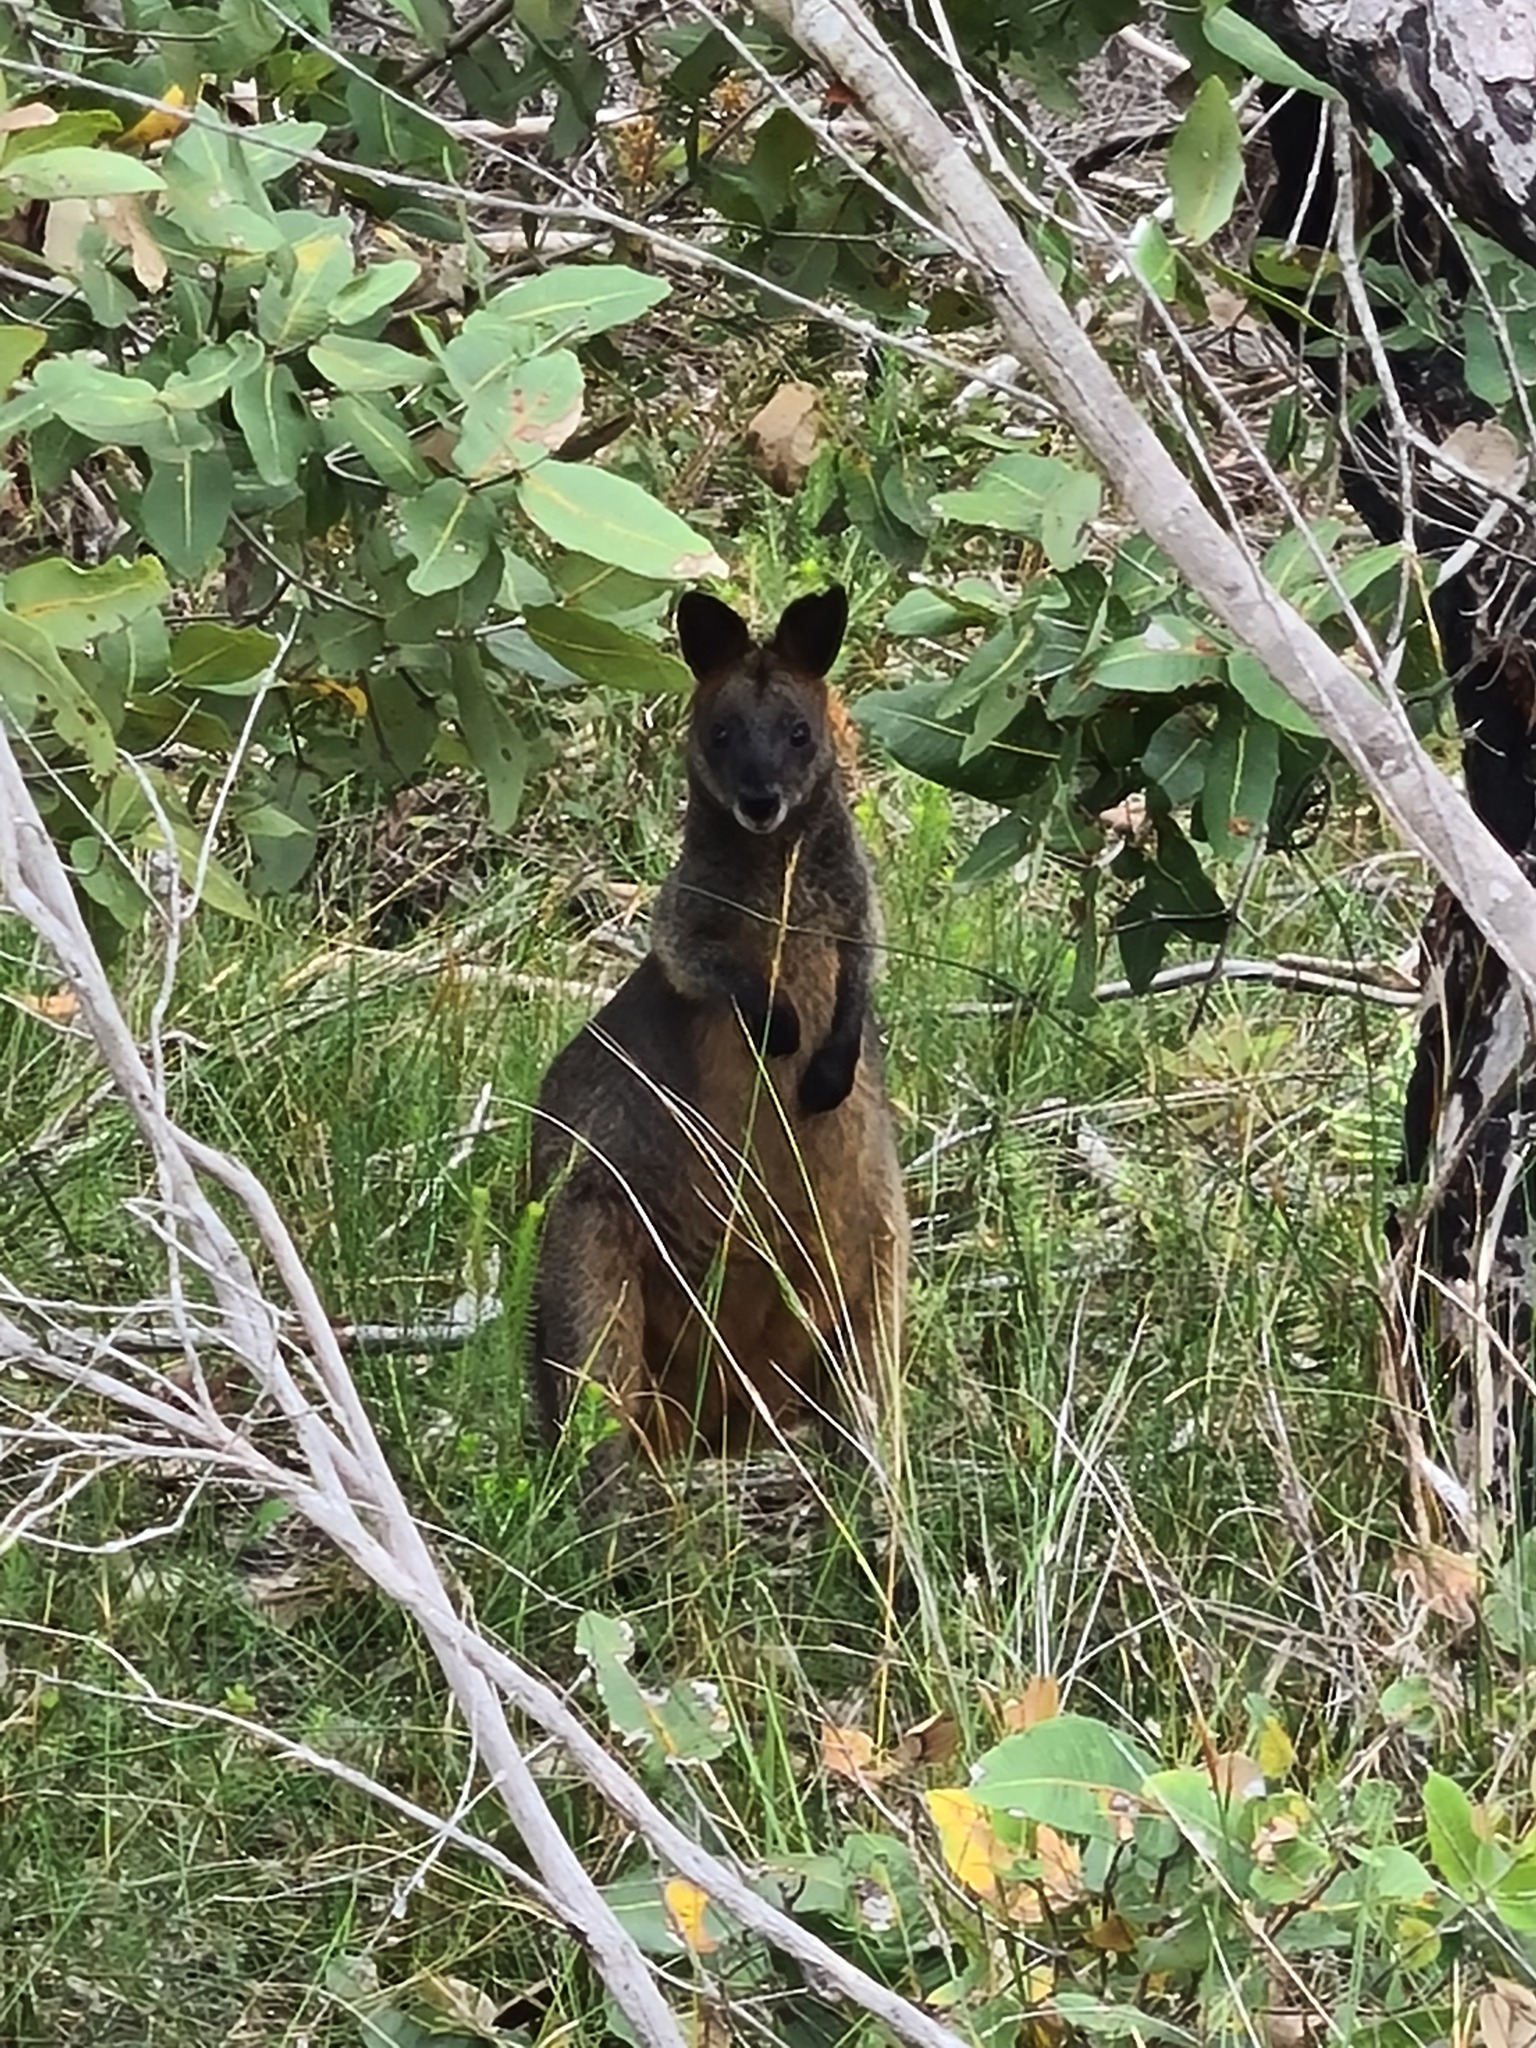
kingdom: Animalia
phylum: Chordata
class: Mammalia
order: Diprotodontia
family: Macropodidae
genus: Wallabia
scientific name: Wallabia bicolor
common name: Swamp wallaby
